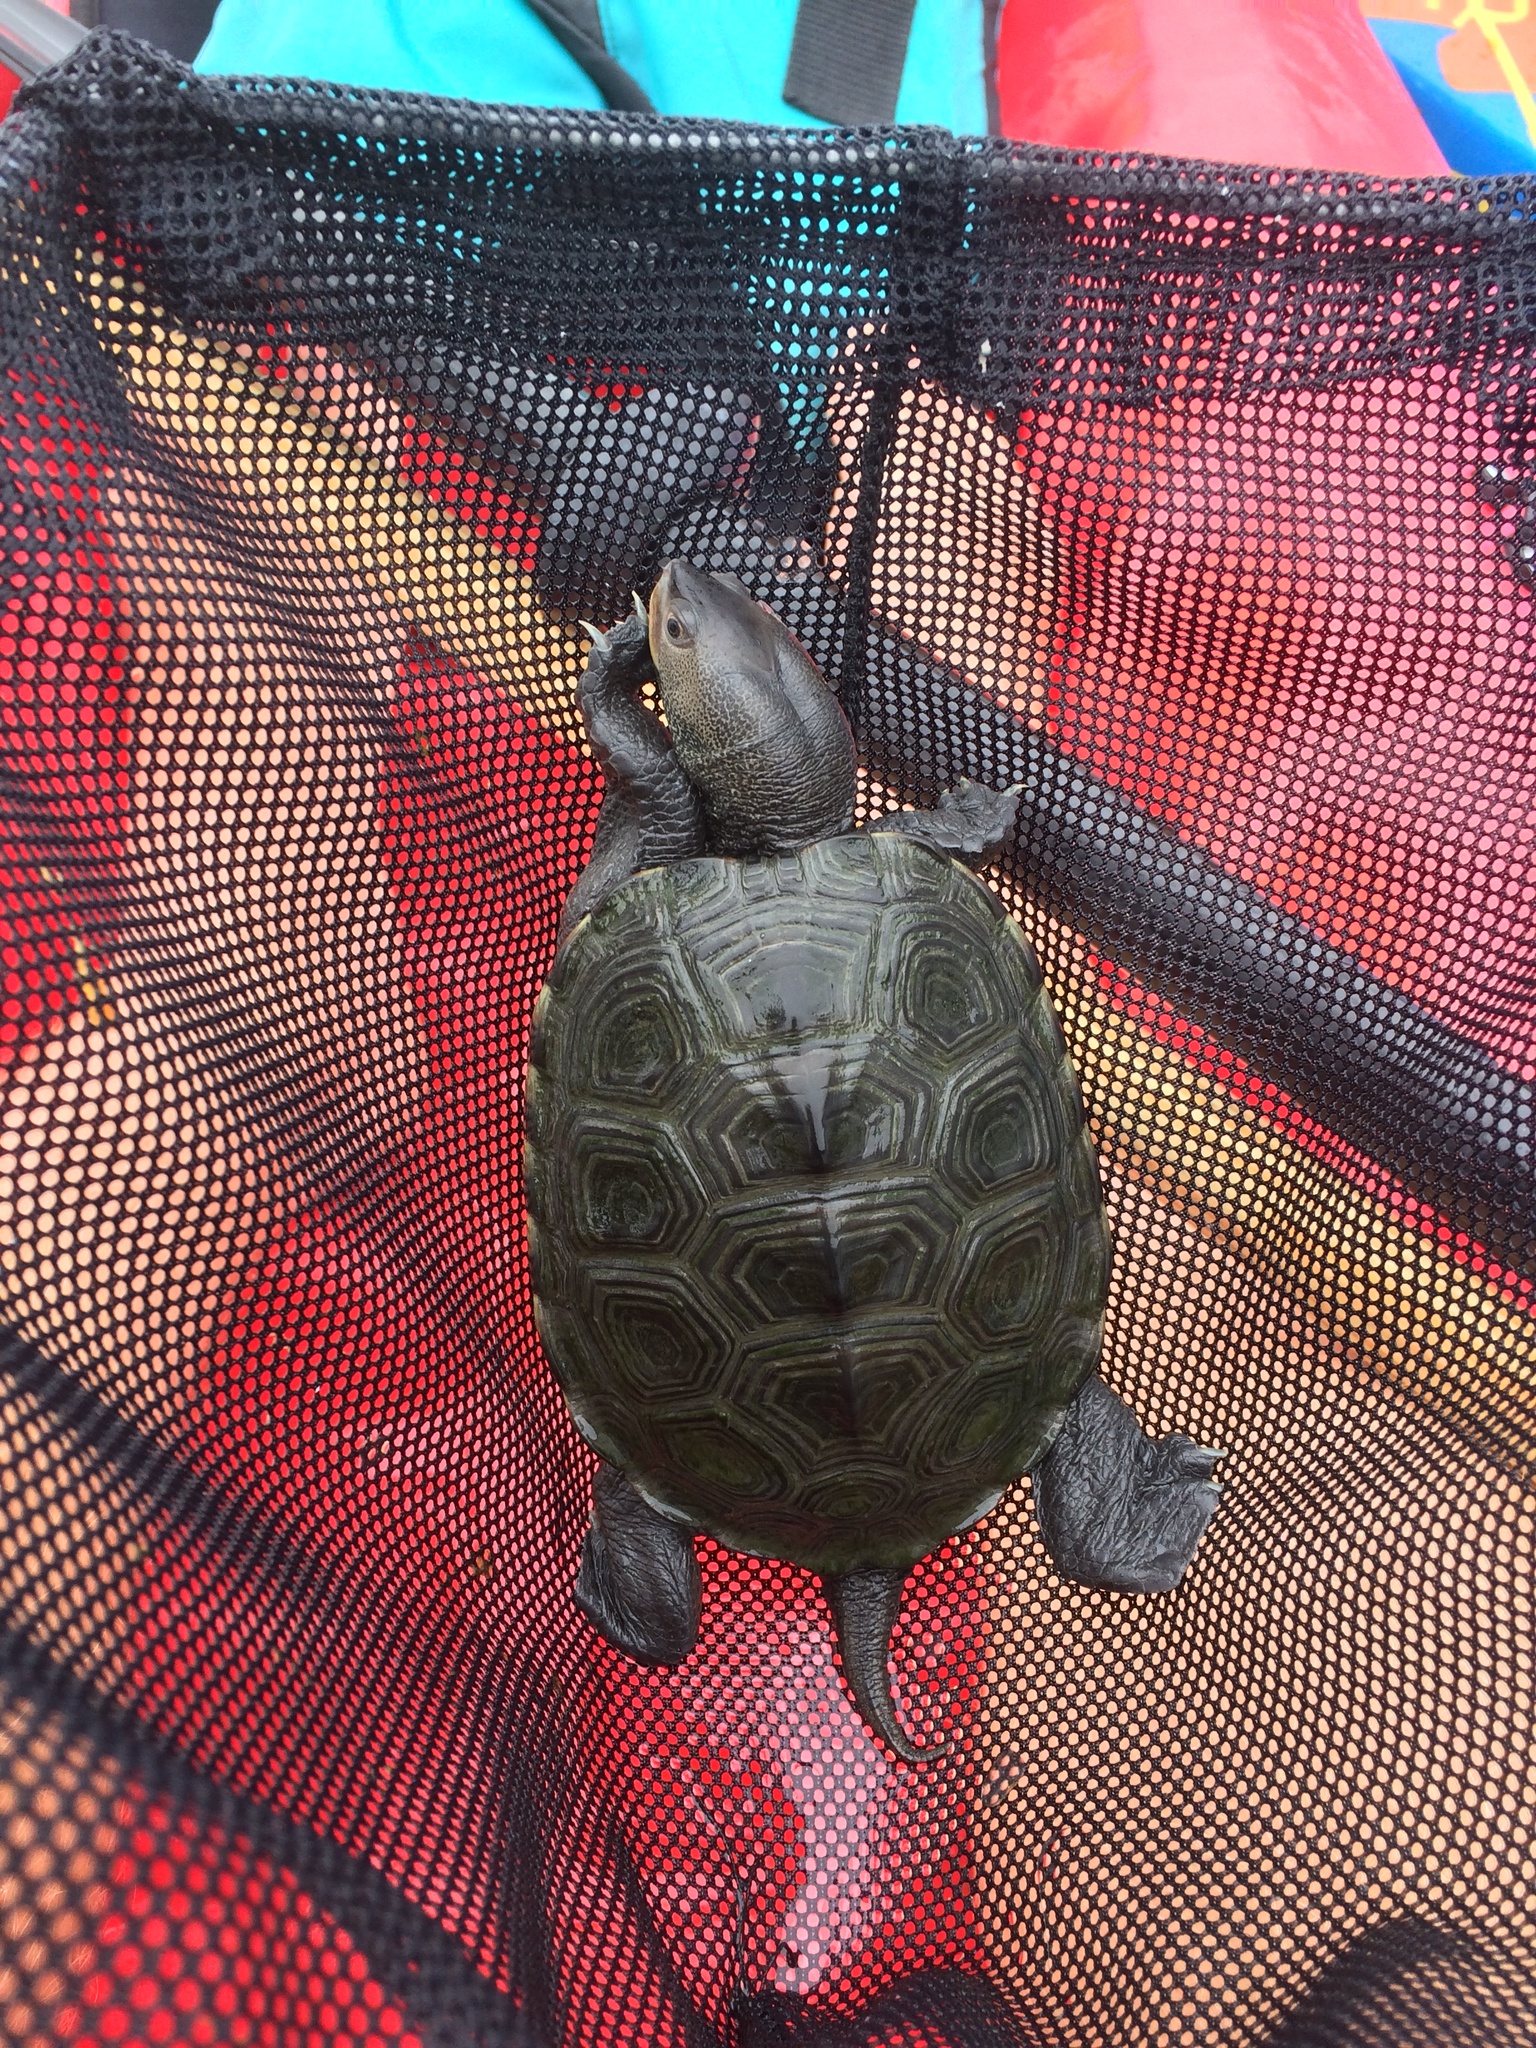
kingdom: Animalia
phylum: Chordata
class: Testudines
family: Emydidae
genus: Malaclemys
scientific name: Malaclemys terrapin
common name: Diamondback terrapin
